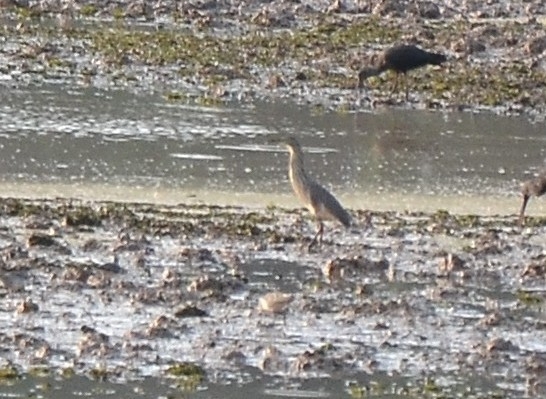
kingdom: Animalia
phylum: Chordata
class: Aves
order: Pelecaniformes
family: Ardeidae
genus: Ardeola
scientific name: Ardeola grayii
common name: Indian pond heron
